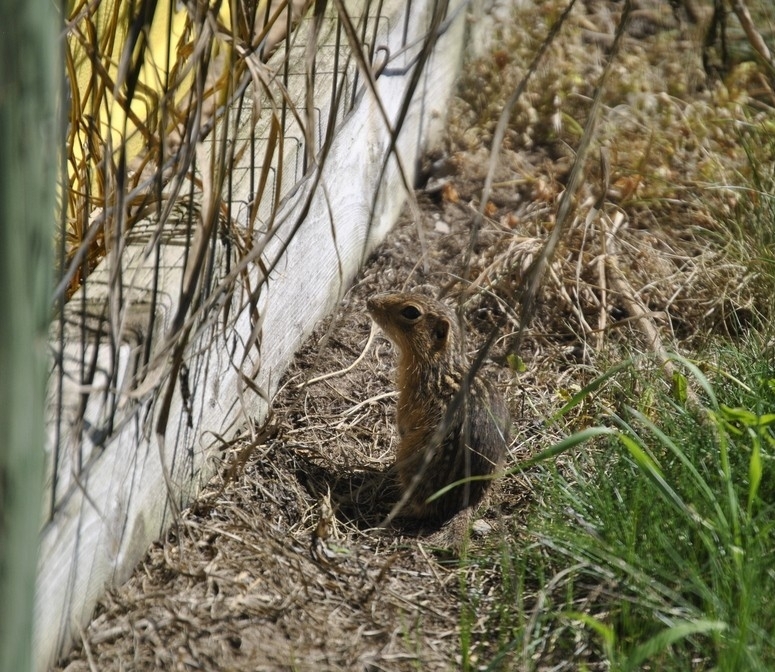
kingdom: Animalia
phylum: Chordata
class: Mammalia
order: Rodentia
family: Sciuridae
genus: Ictidomys
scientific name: Ictidomys tridecemlineatus
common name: Thirteen-lined ground squirrel
